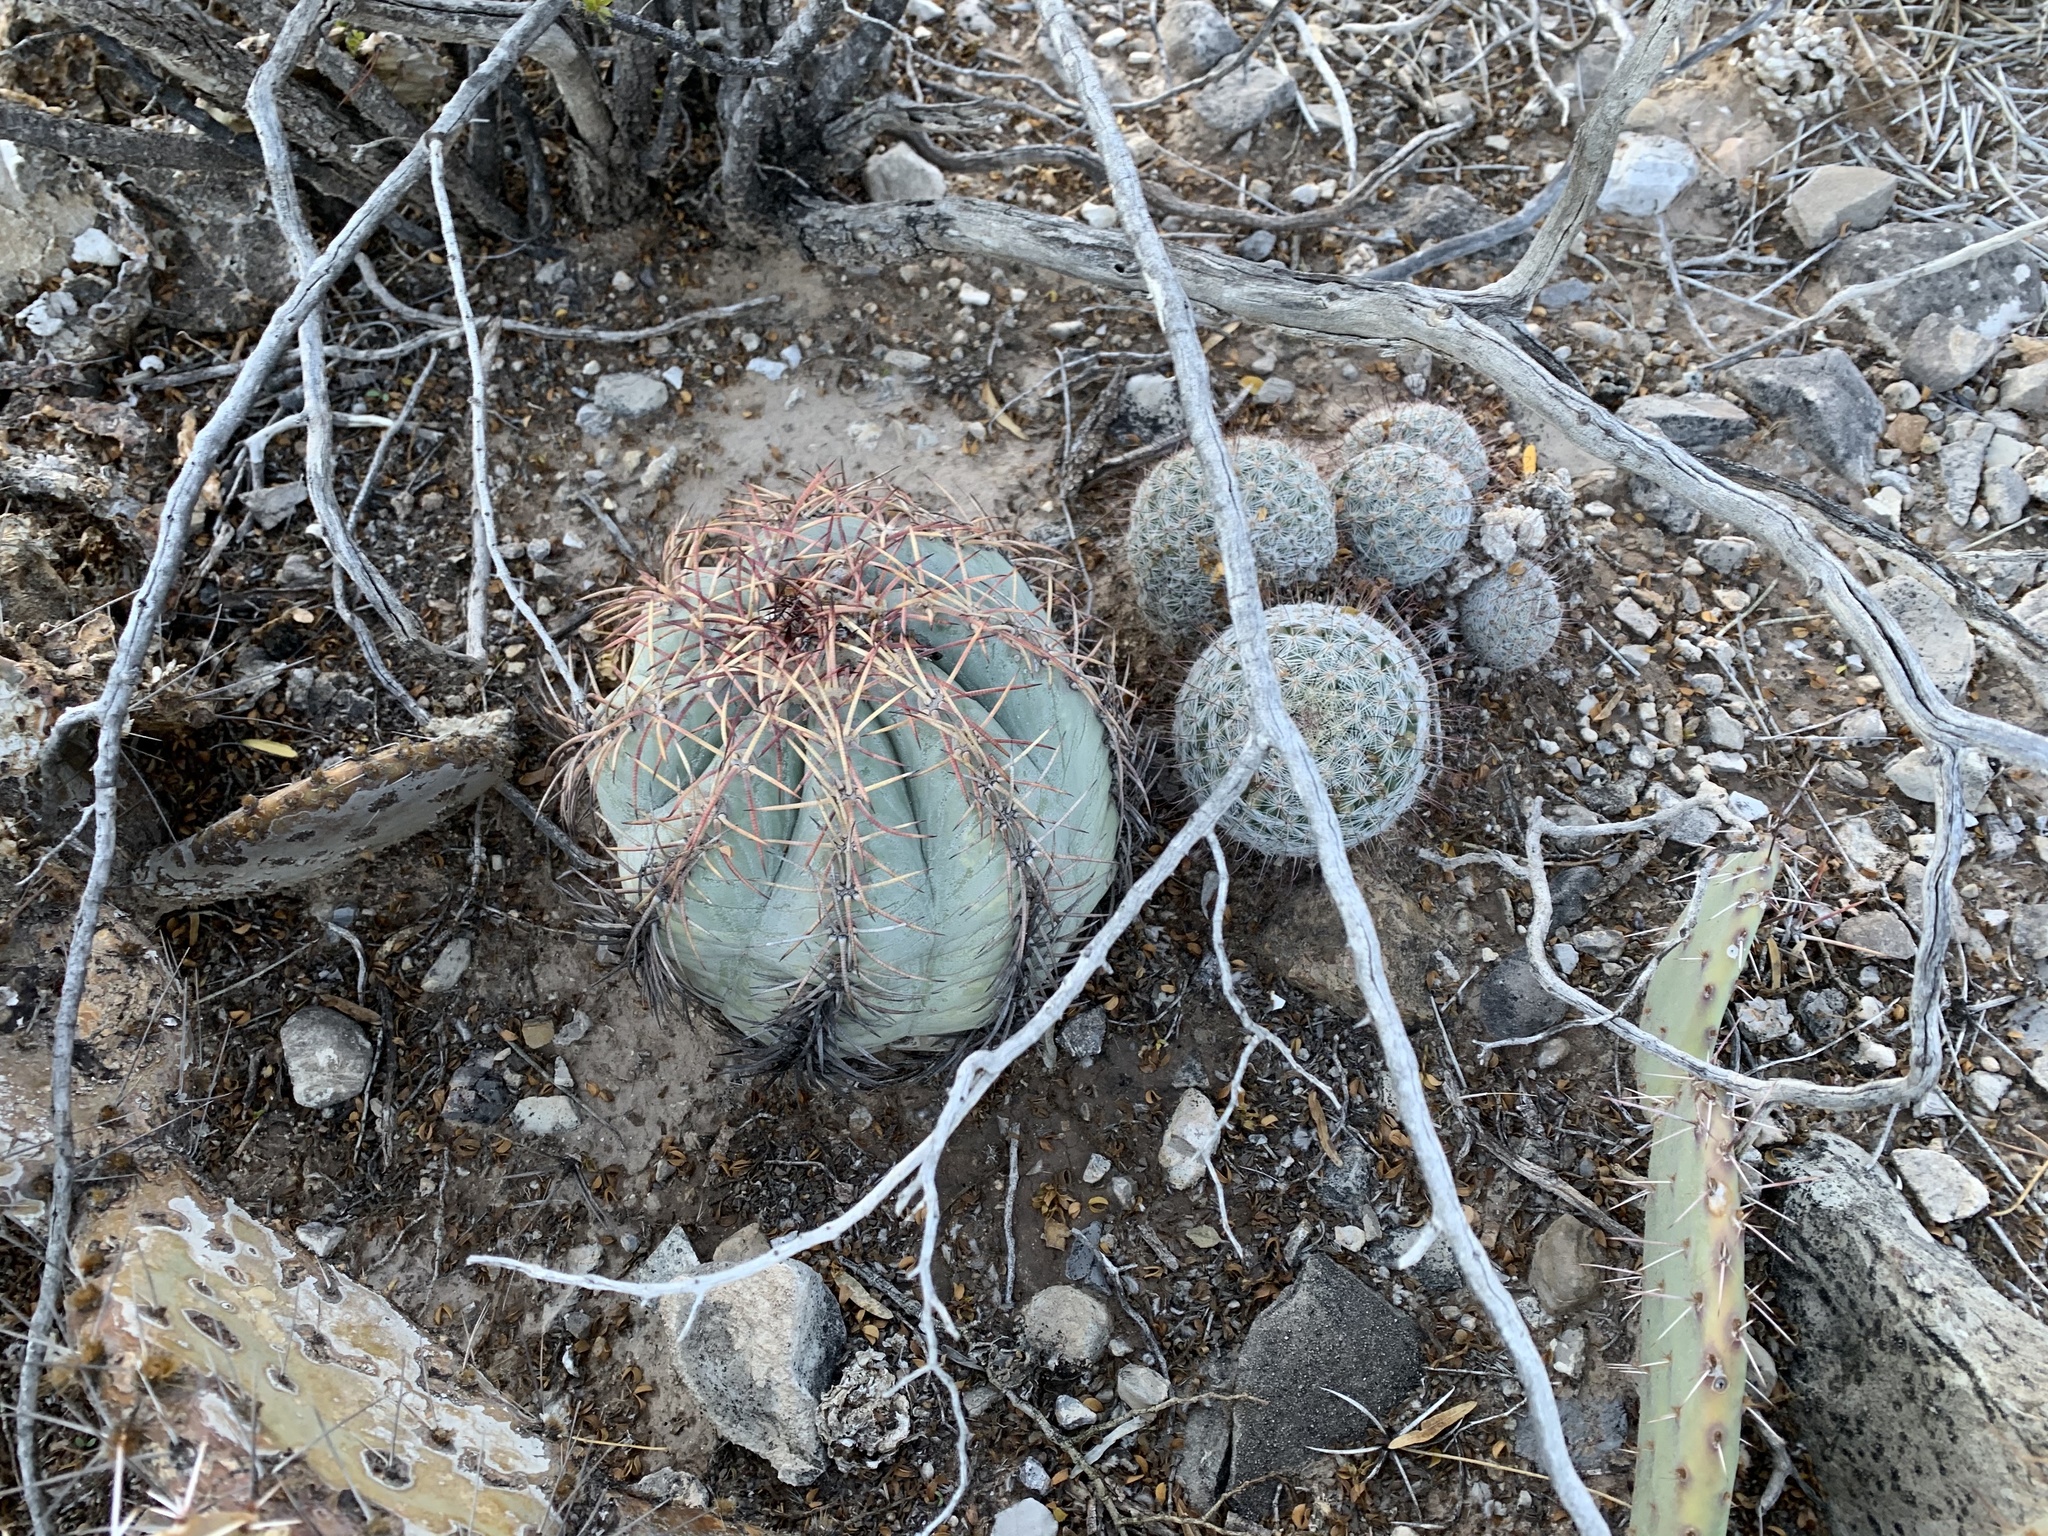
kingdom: Plantae
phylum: Tracheophyta
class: Magnoliopsida
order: Caryophyllales
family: Cactaceae
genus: Cochemiea
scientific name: Cochemiea grahamii
